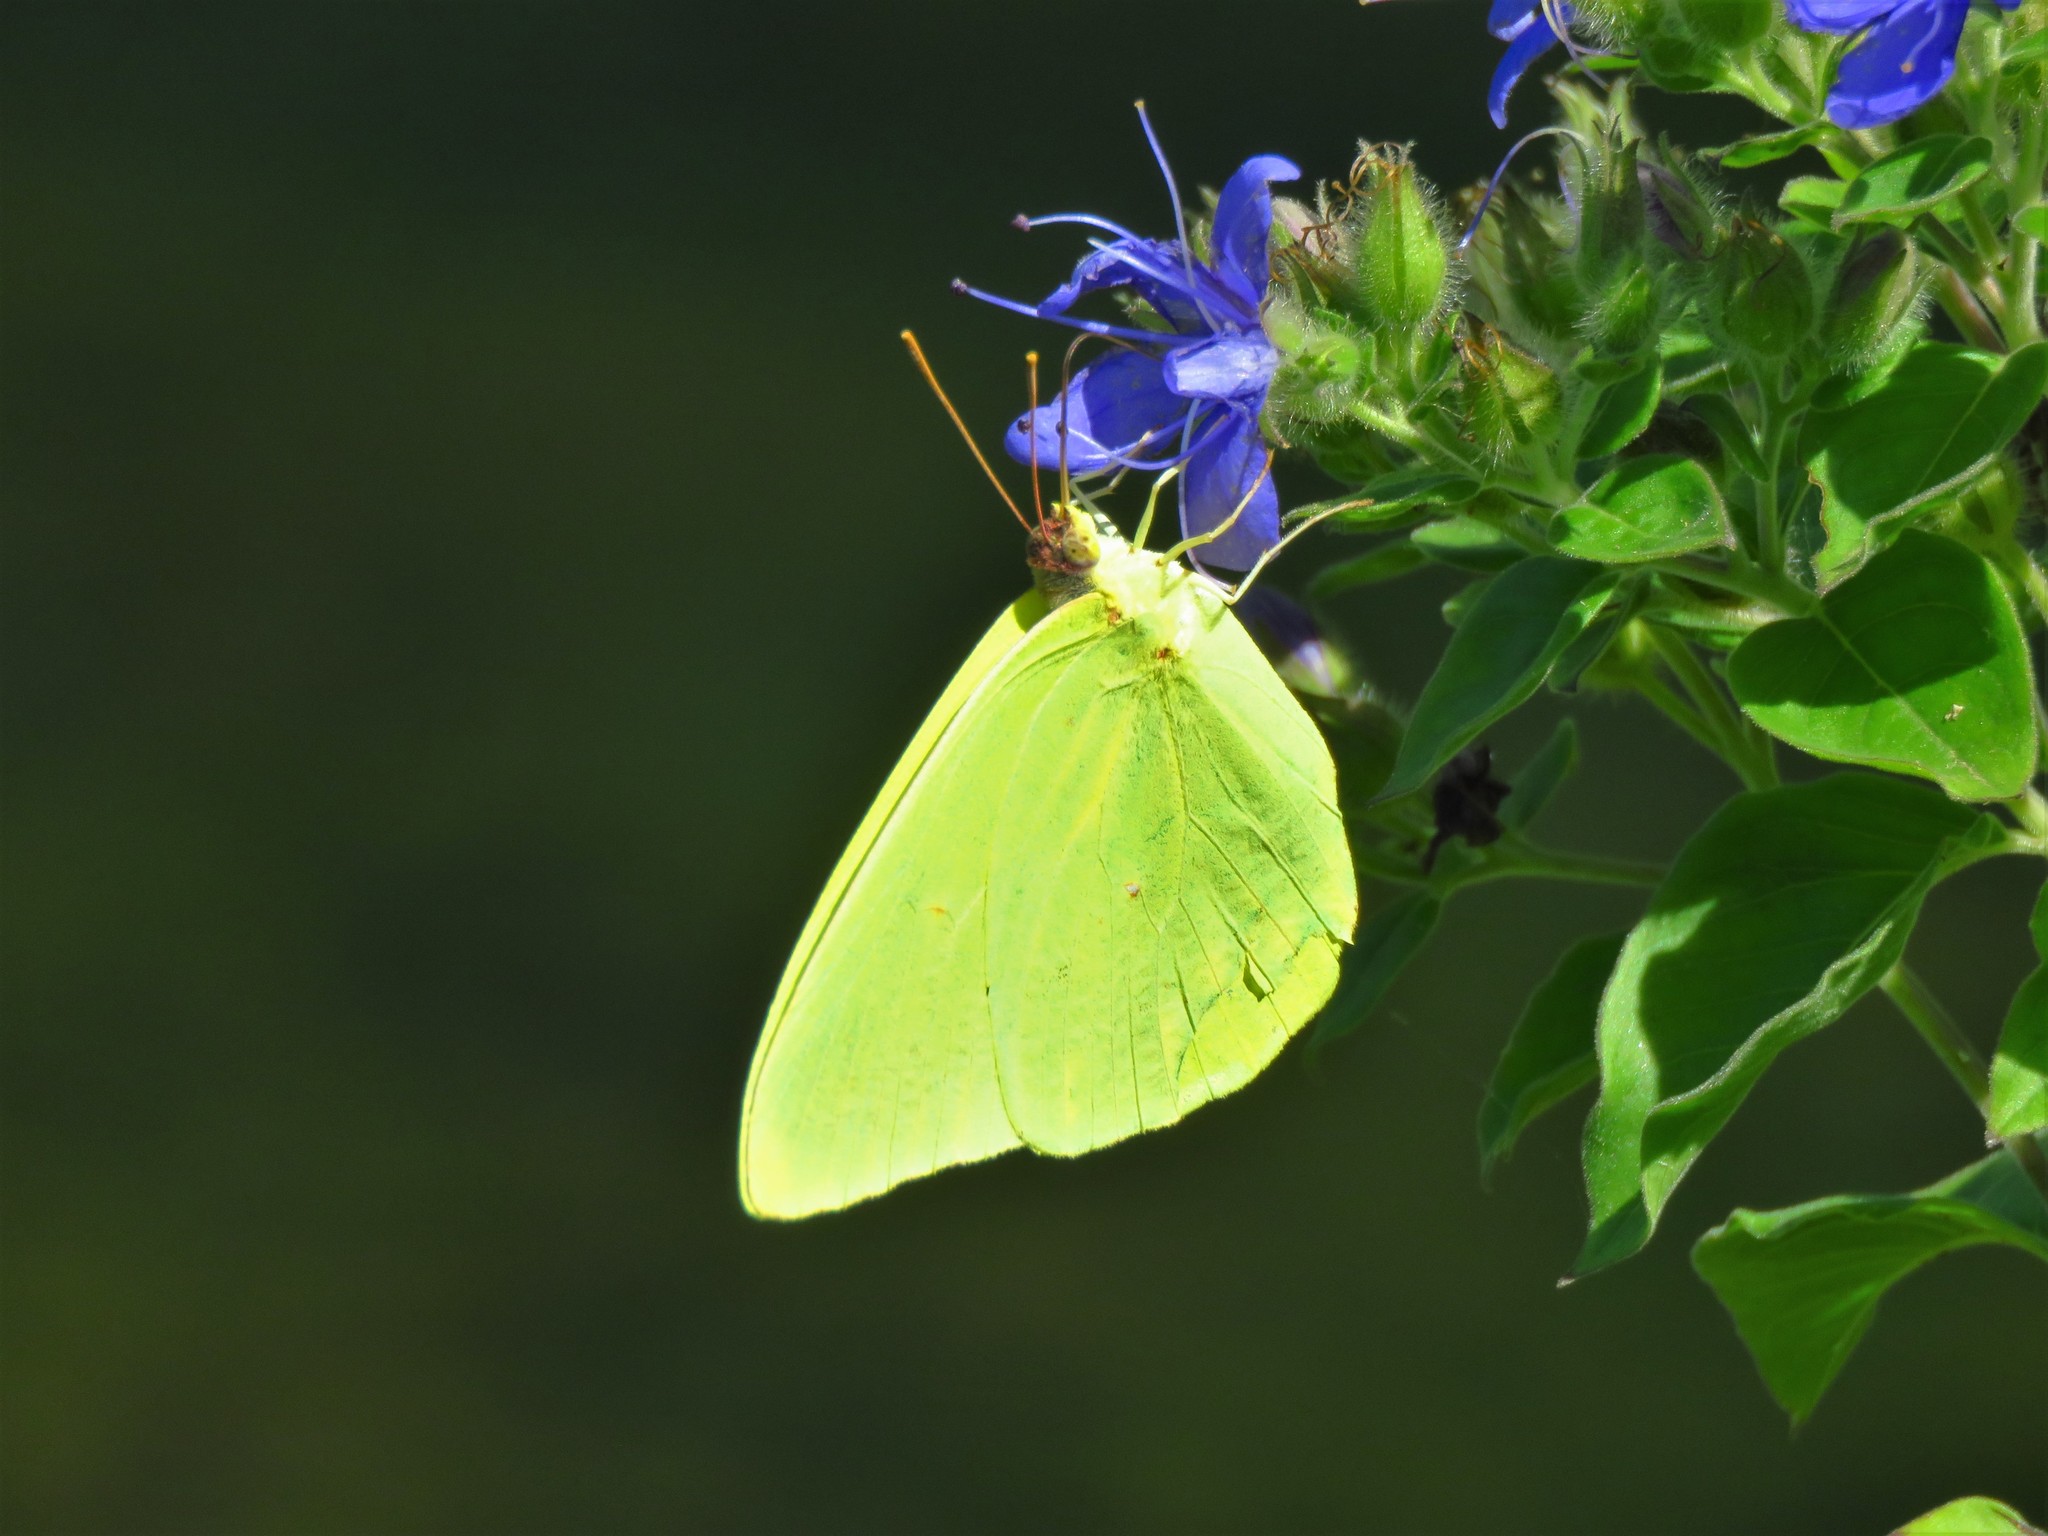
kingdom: Animalia
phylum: Arthropoda
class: Insecta
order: Lepidoptera
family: Pieridae
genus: Phoebis
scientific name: Phoebis sennae
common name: Cloudless sulphur
